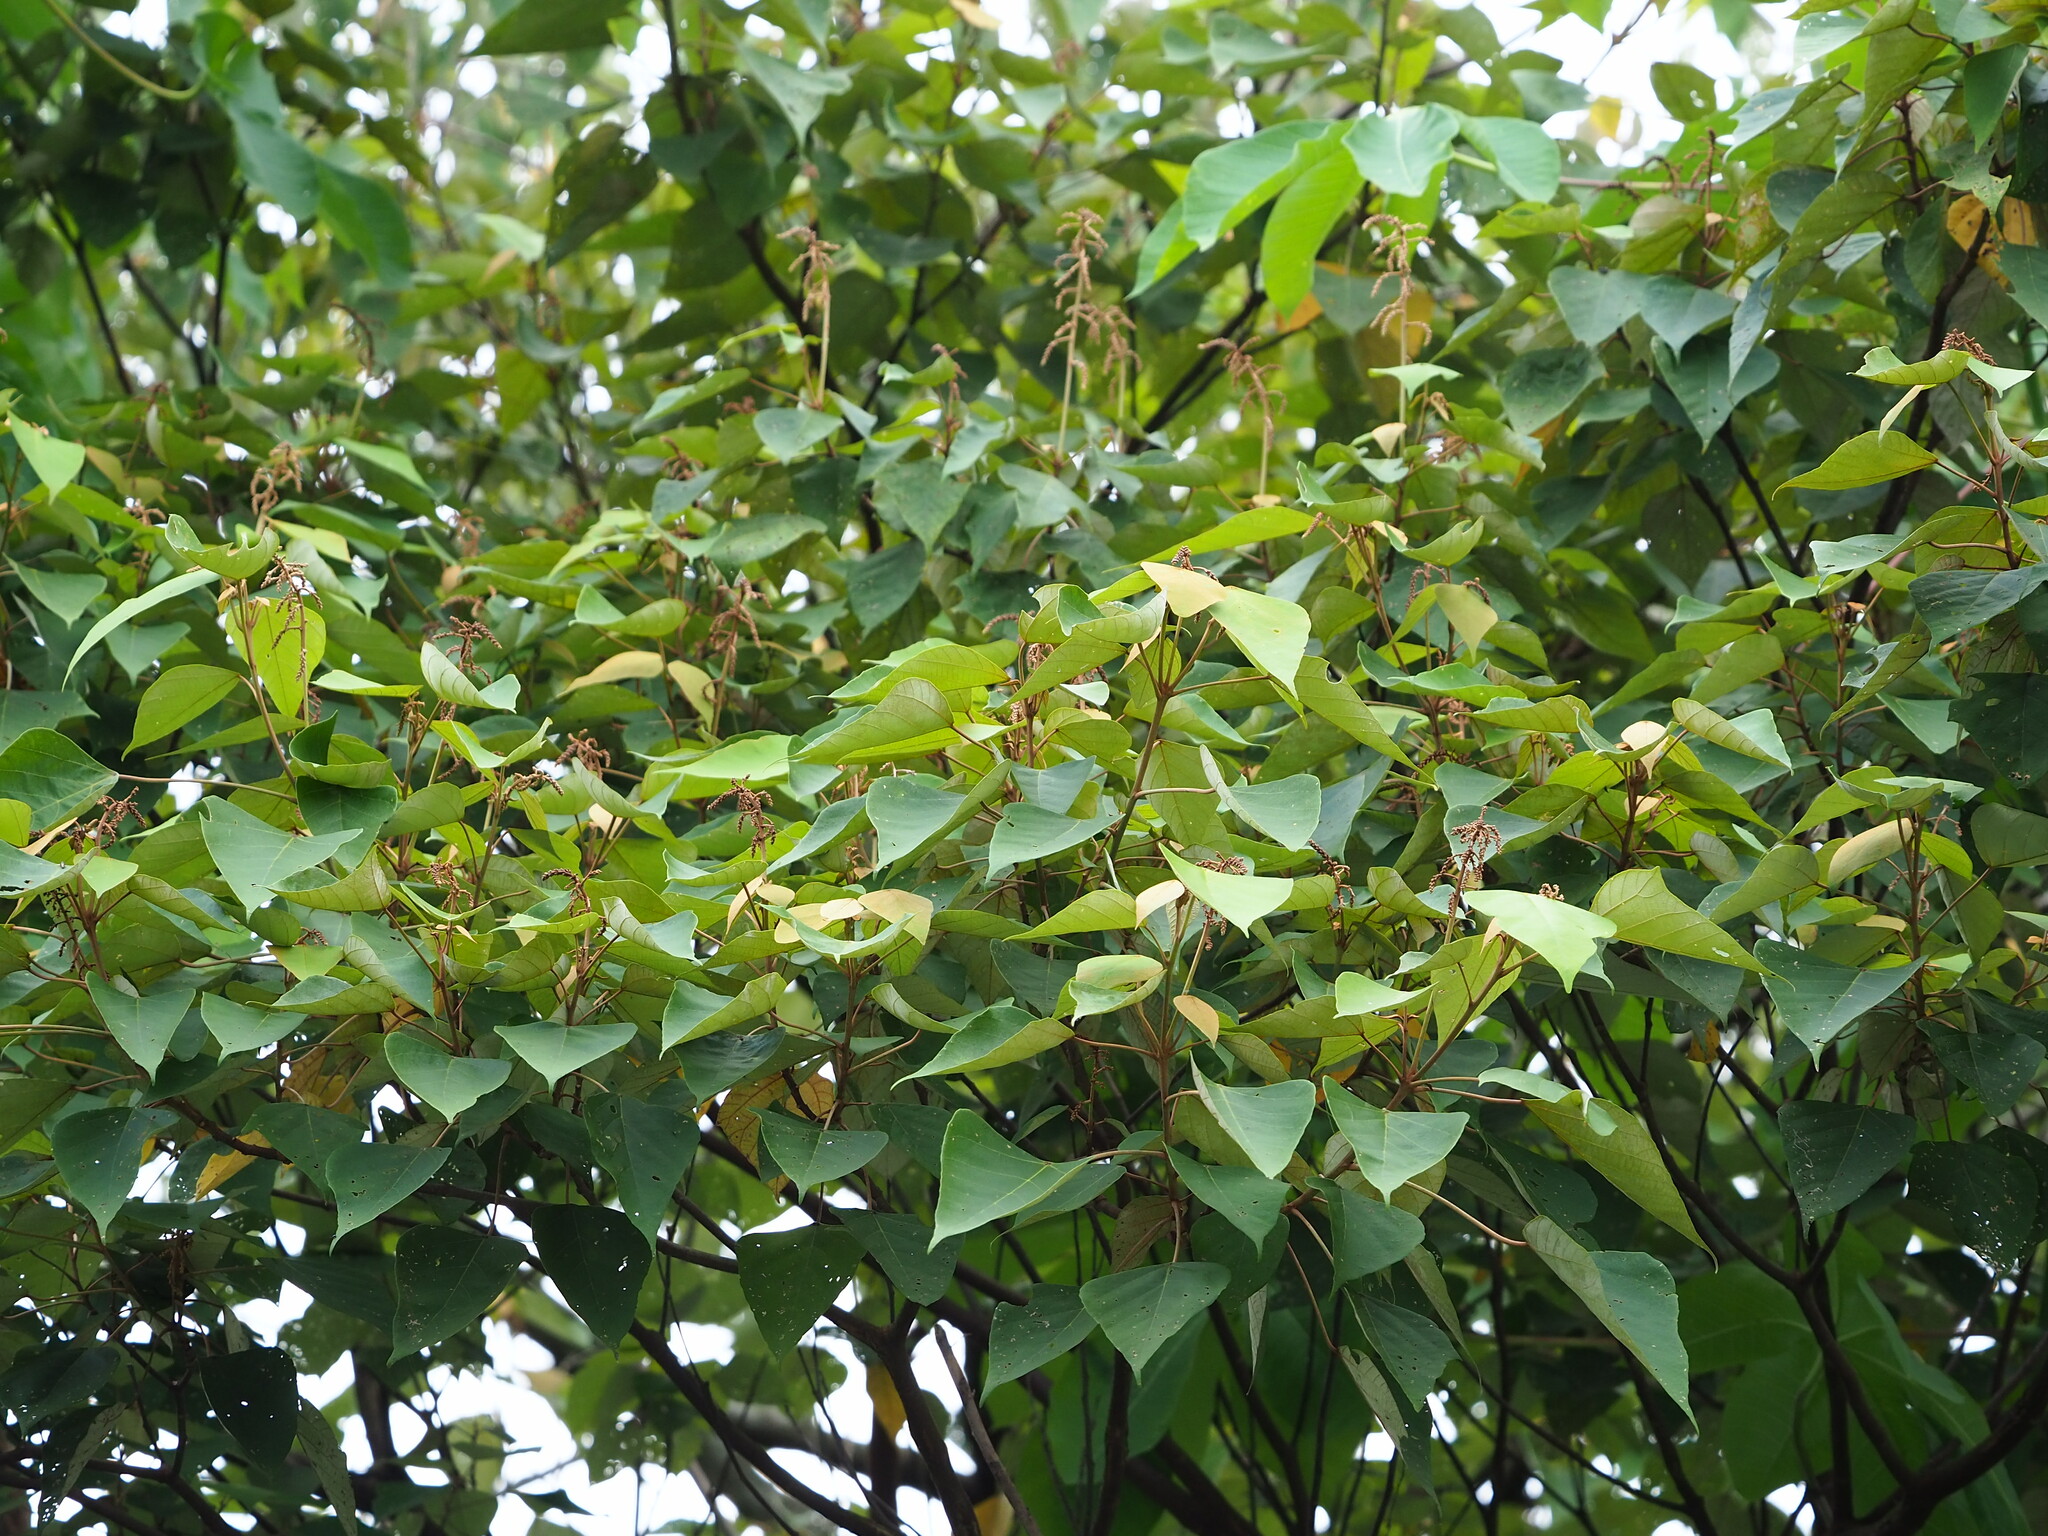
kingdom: Plantae
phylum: Tracheophyta
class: Magnoliopsida
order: Malpighiales
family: Euphorbiaceae
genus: Mallotus
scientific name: Mallotus paniculatus
